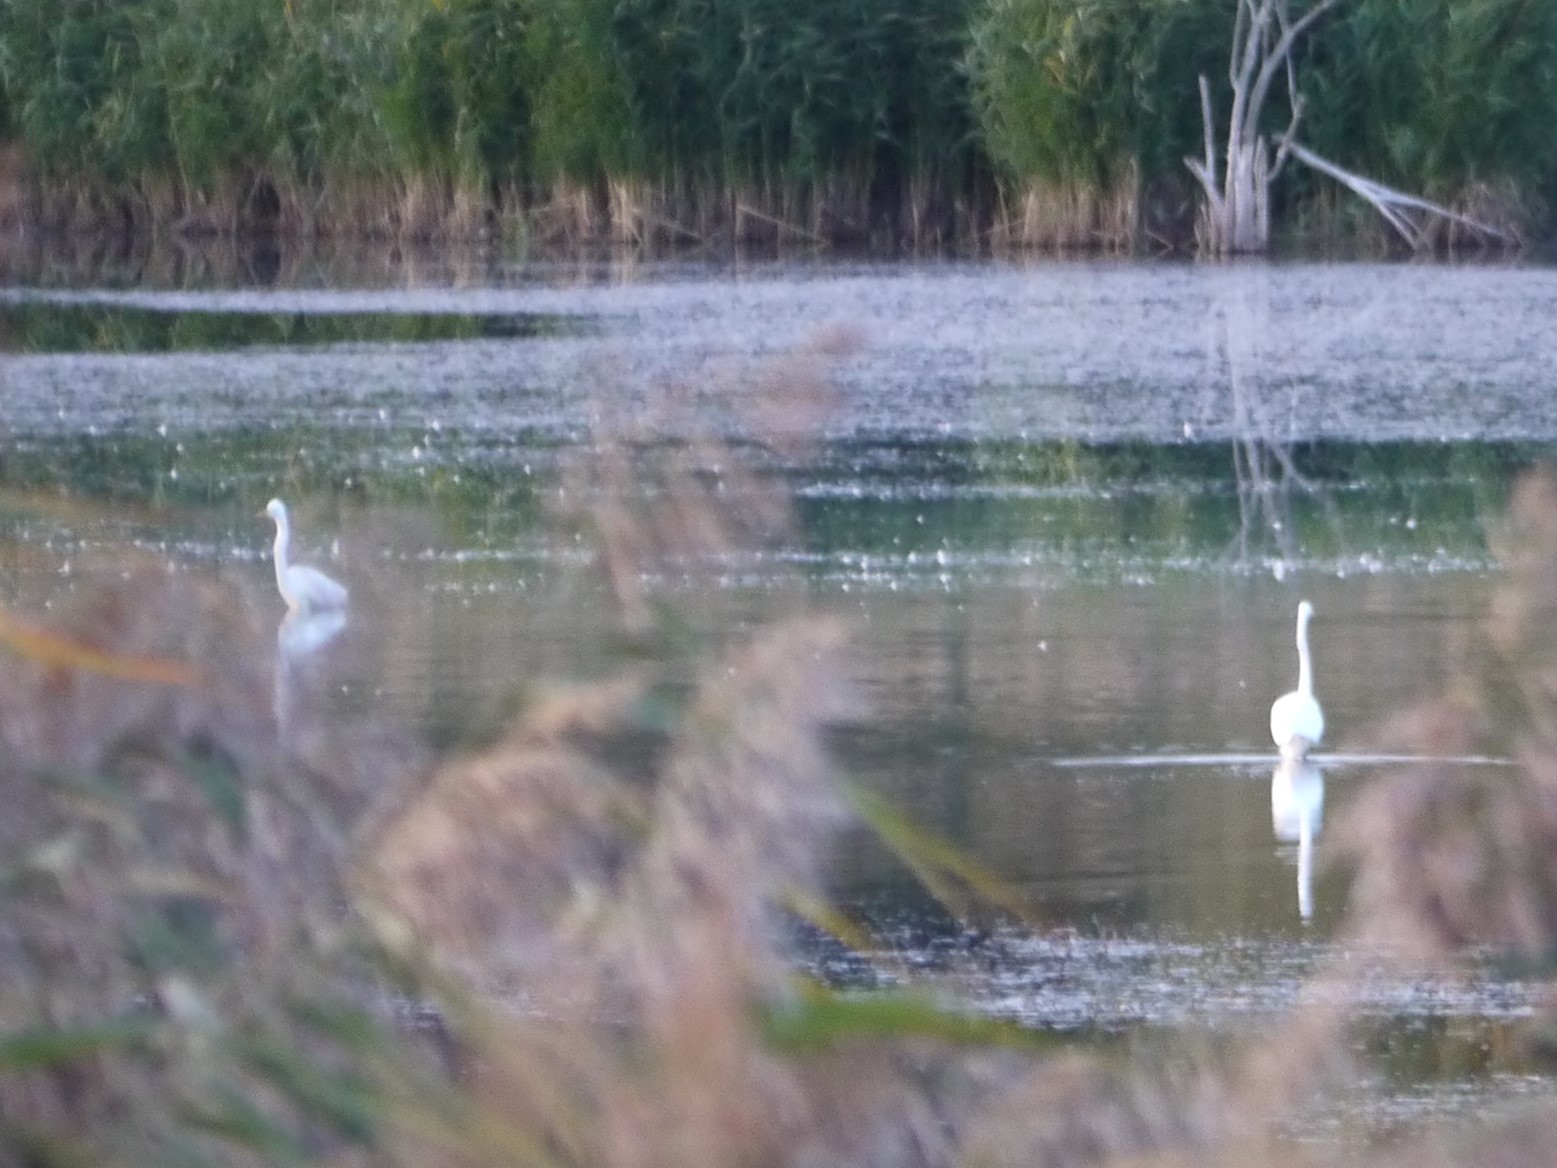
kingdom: Animalia
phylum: Chordata
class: Aves
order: Pelecaniformes
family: Ardeidae
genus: Ardea
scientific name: Ardea alba
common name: Great egret
